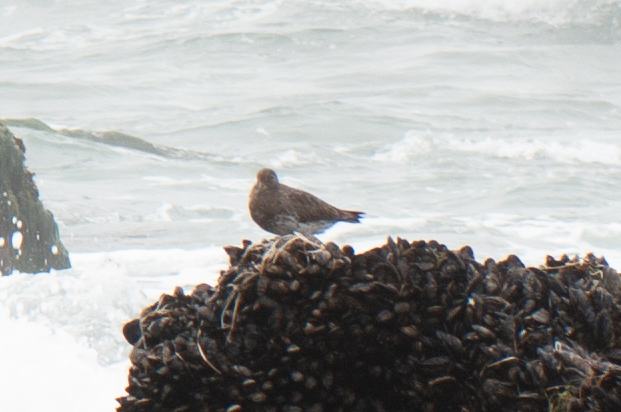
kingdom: Animalia
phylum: Chordata
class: Aves
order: Charadriiformes
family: Scolopacidae
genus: Calidris
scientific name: Calidris virgata
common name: Surfbird
